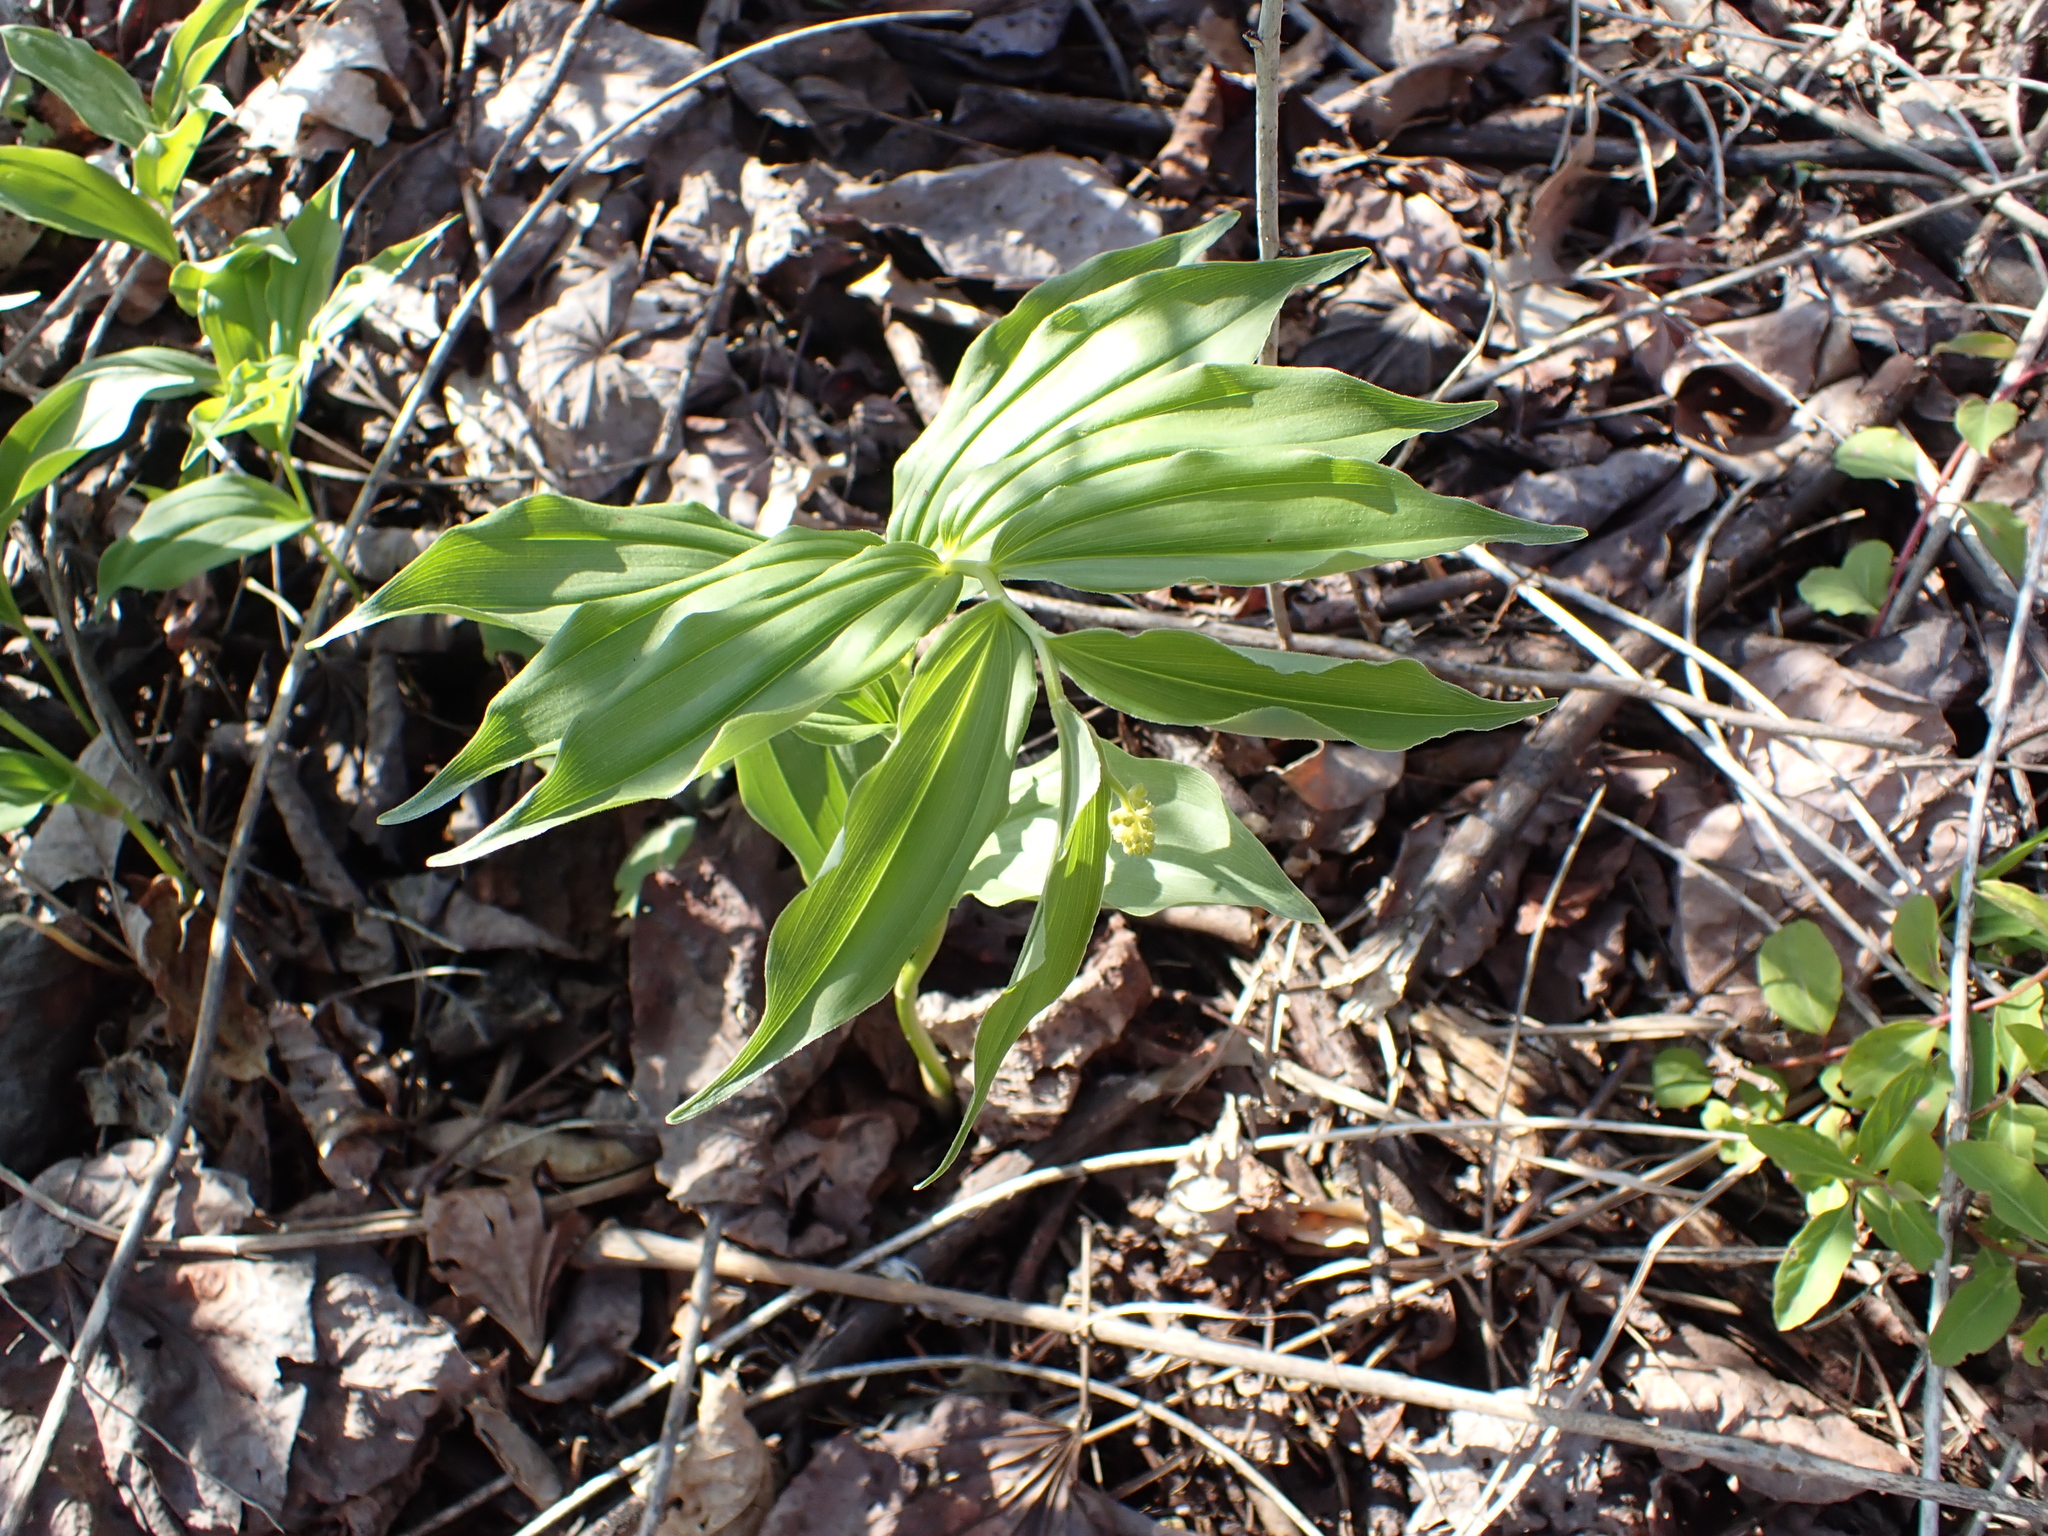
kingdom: Plantae
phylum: Tracheophyta
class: Liliopsida
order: Asparagales
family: Asparagaceae
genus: Maianthemum
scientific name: Maianthemum racemosum
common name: False spikenard
